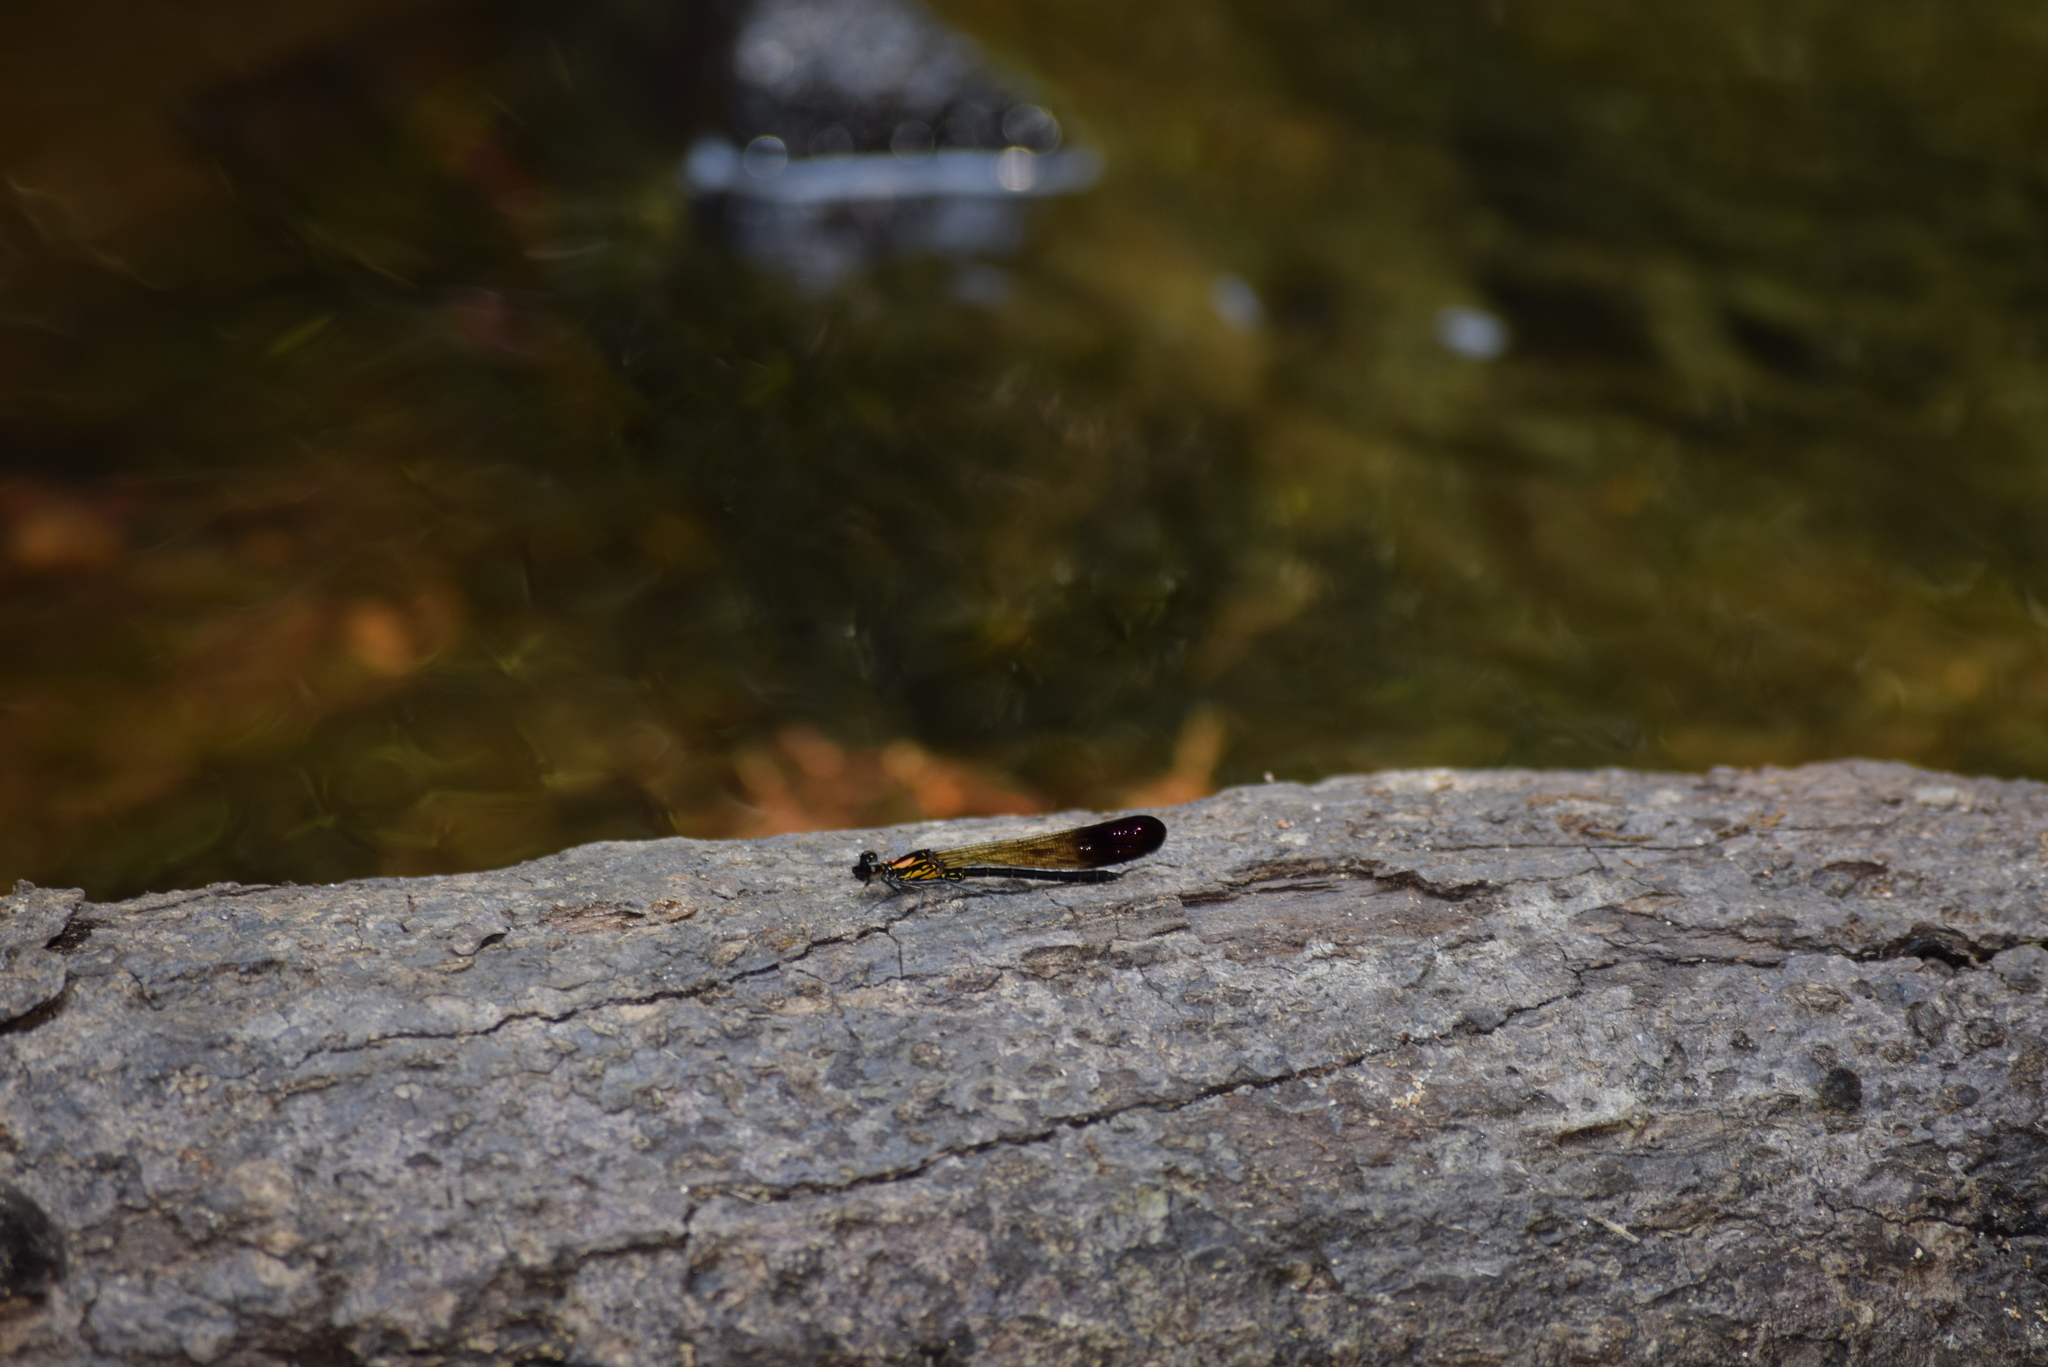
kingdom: Animalia
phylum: Arthropoda
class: Insecta
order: Odonata
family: Chlorocyphidae
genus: Heliocypha
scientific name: Heliocypha bisignata
